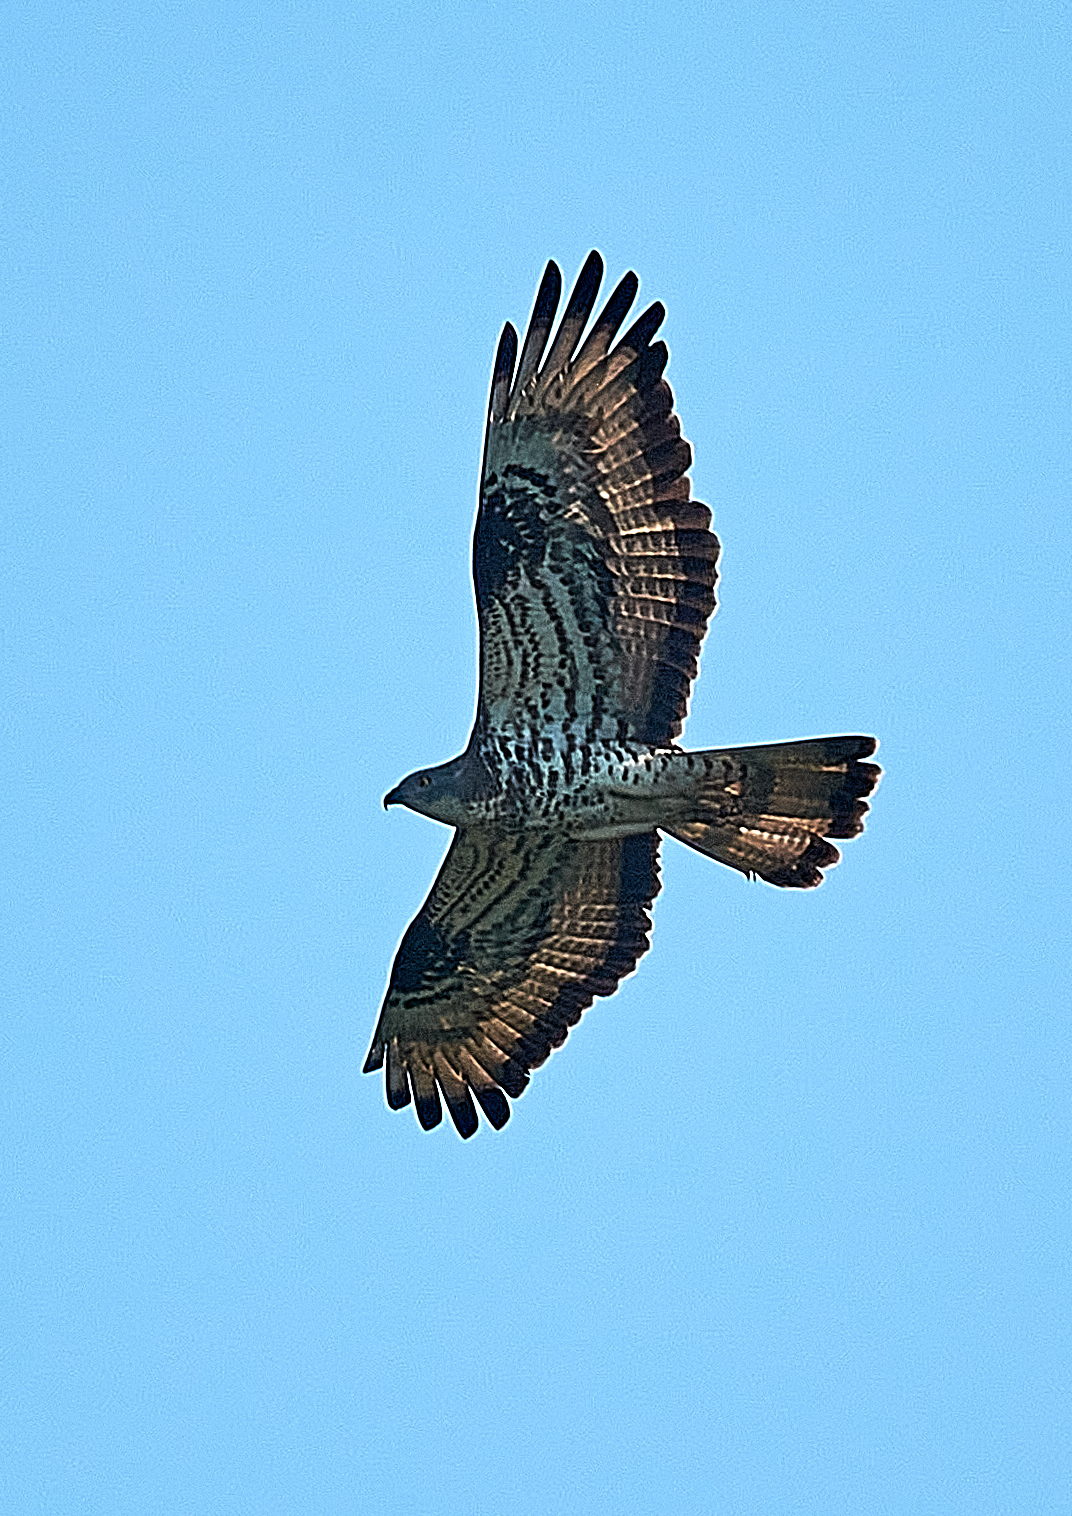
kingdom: Animalia
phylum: Chordata
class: Aves
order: Accipitriformes
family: Accipitridae
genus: Pernis
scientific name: Pernis apivorus
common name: European honey buzzard
